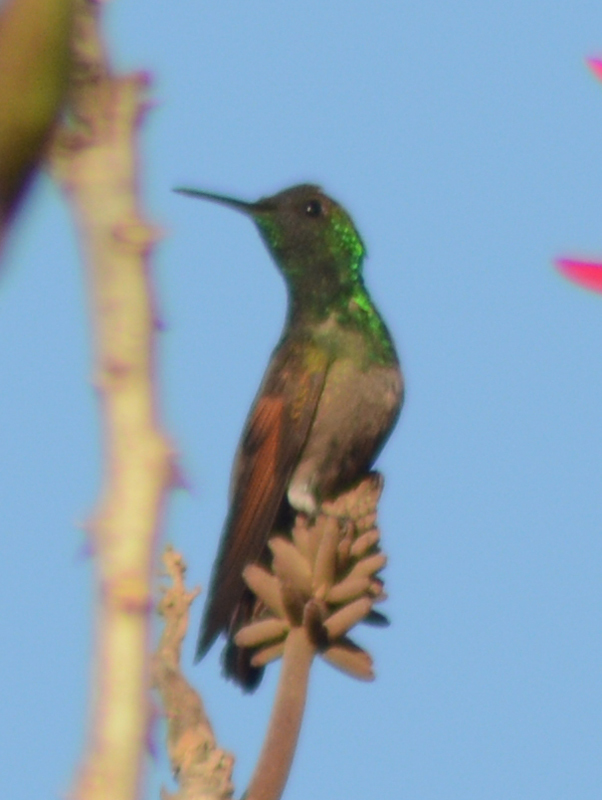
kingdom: Animalia
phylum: Chordata
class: Aves
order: Apodiformes
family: Trochilidae
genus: Saucerottia
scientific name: Saucerottia beryllina
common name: Berylline hummingbird
